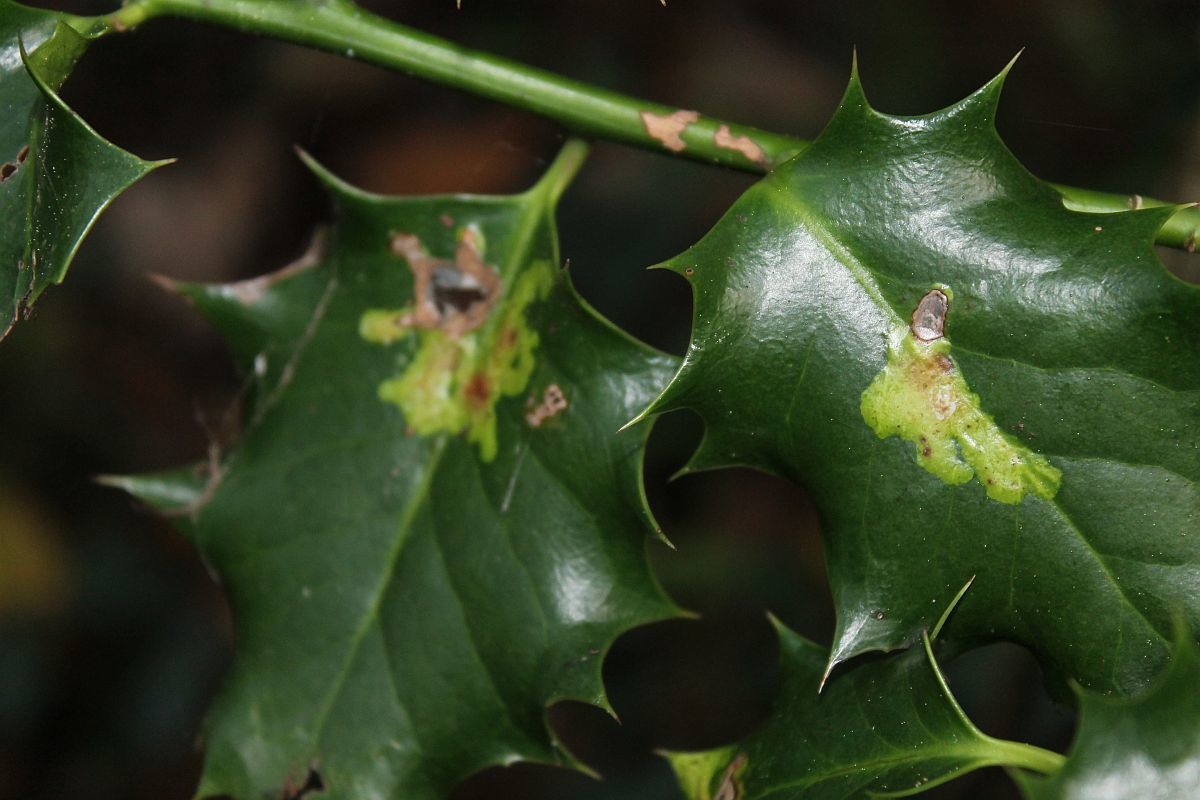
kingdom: Animalia
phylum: Arthropoda
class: Insecta
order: Diptera
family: Agromyzidae
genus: Phytomyza
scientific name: Phytomyza ilicis
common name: Holly leafminer
